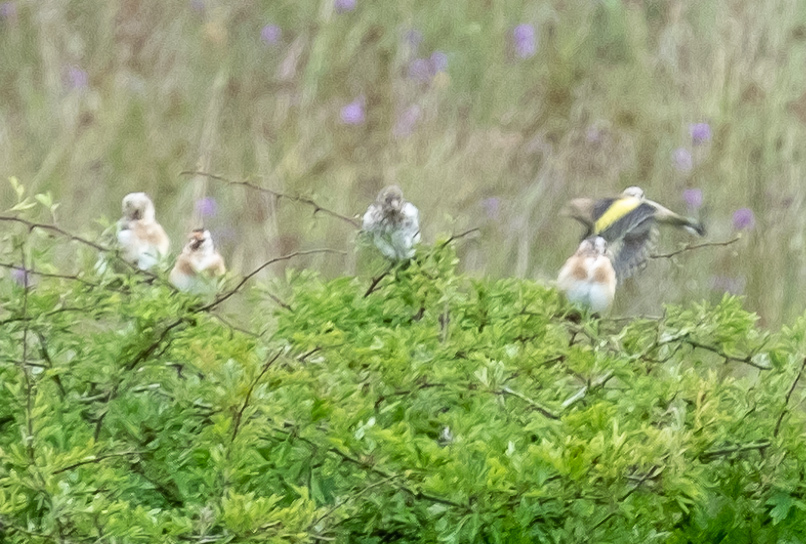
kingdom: Animalia
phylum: Chordata
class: Aves
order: Passeriformes
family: Fringillidae
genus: Carduelis
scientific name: Carduelis carduelis
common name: European goldfinch
